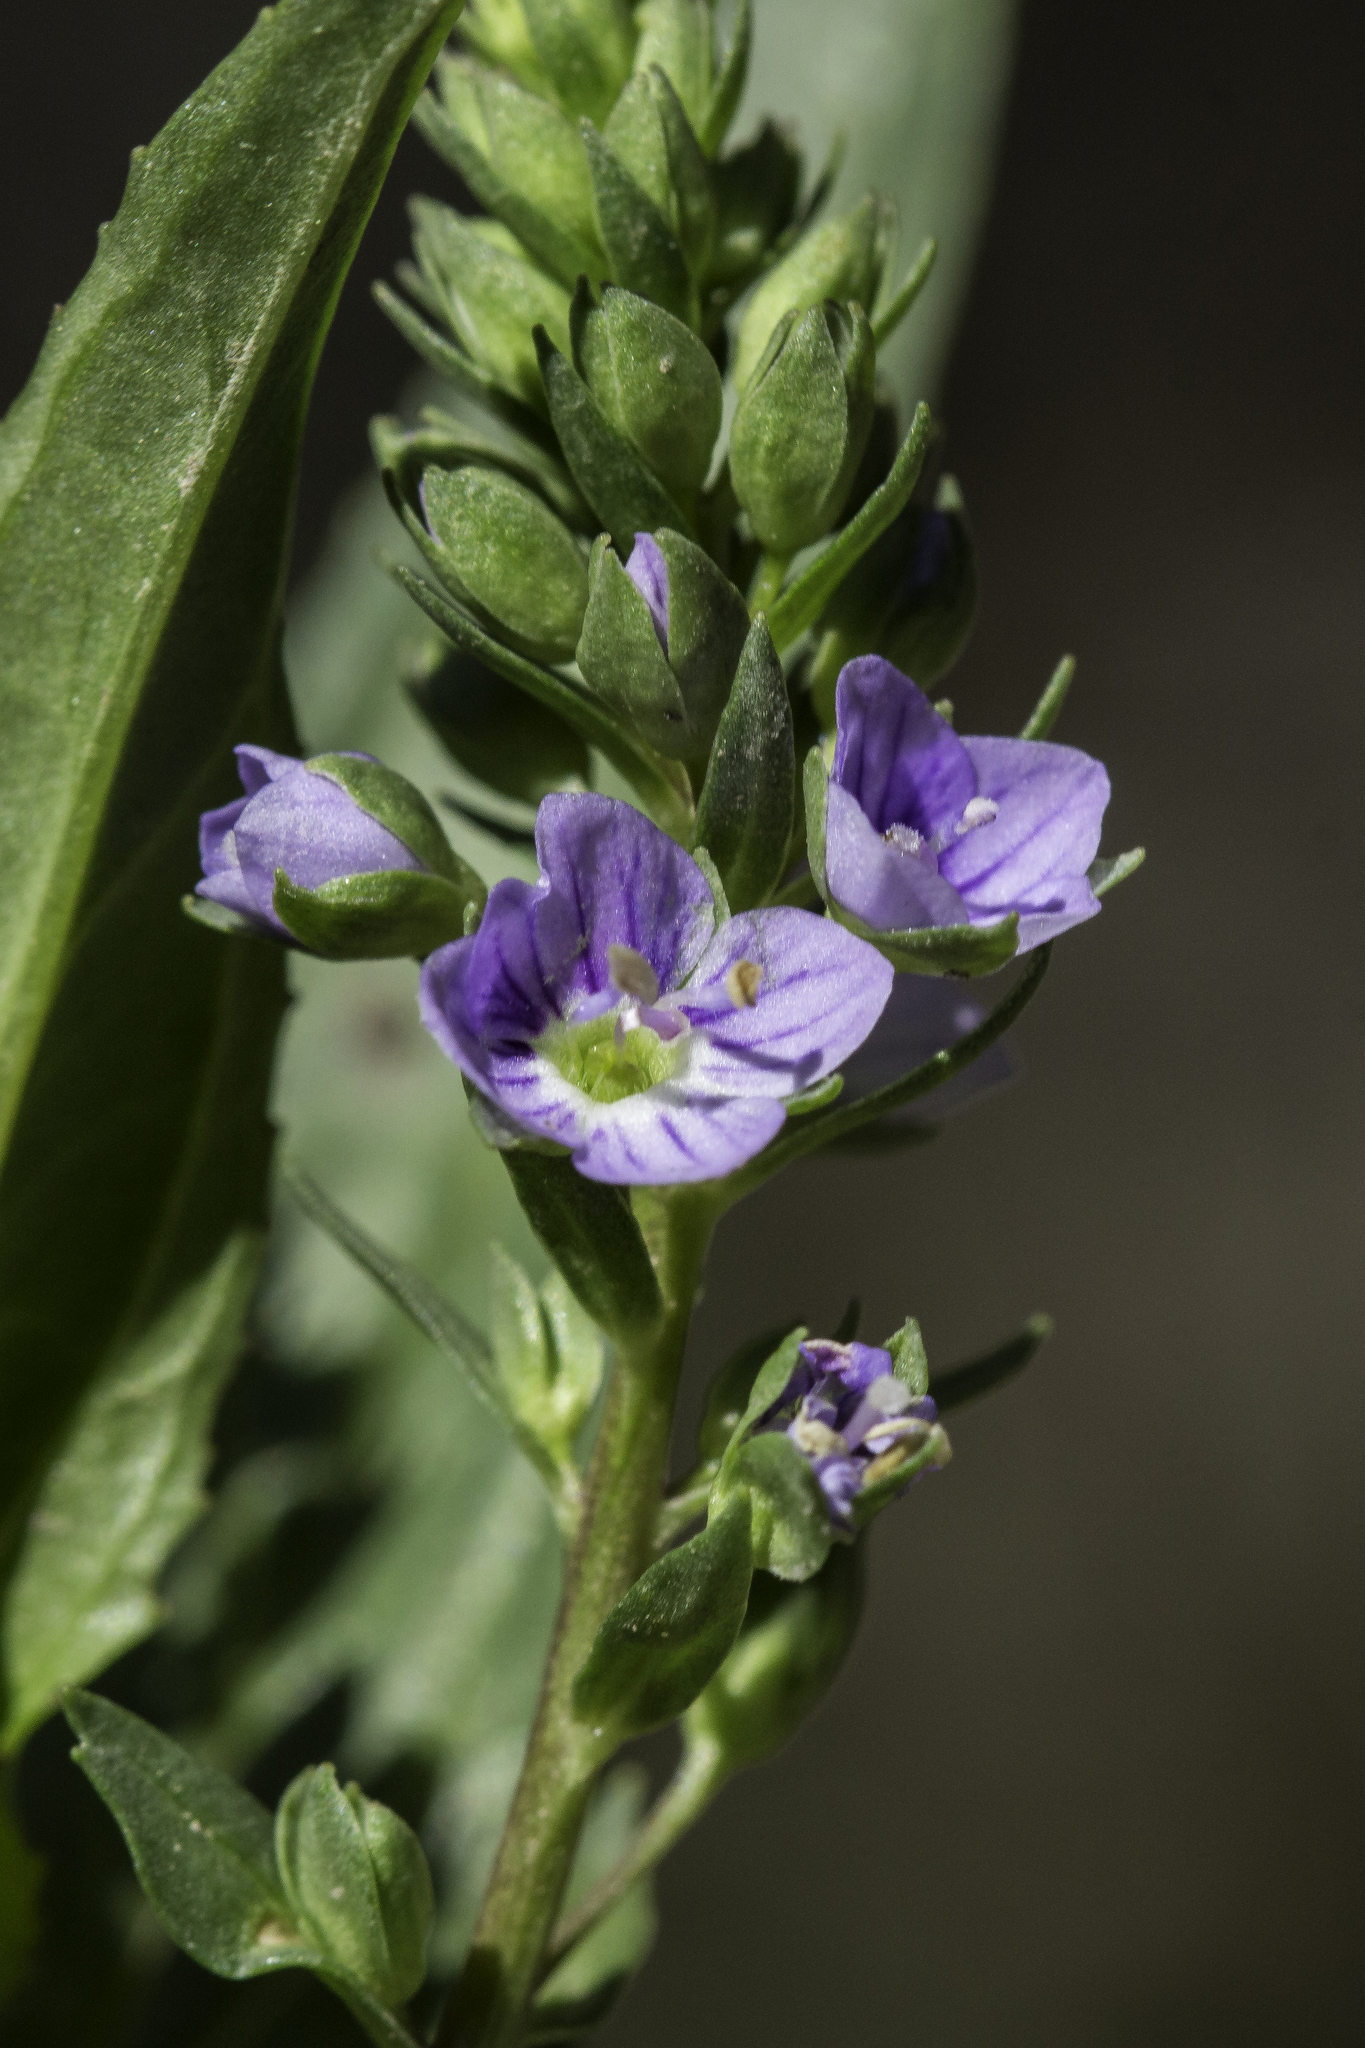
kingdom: Plantae
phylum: Tracheophyta
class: Magnoliopsida
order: Lamiales
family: Plantaginaceae
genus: Veronica
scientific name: Veronica anagallis-aquatica
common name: Water speedwell
